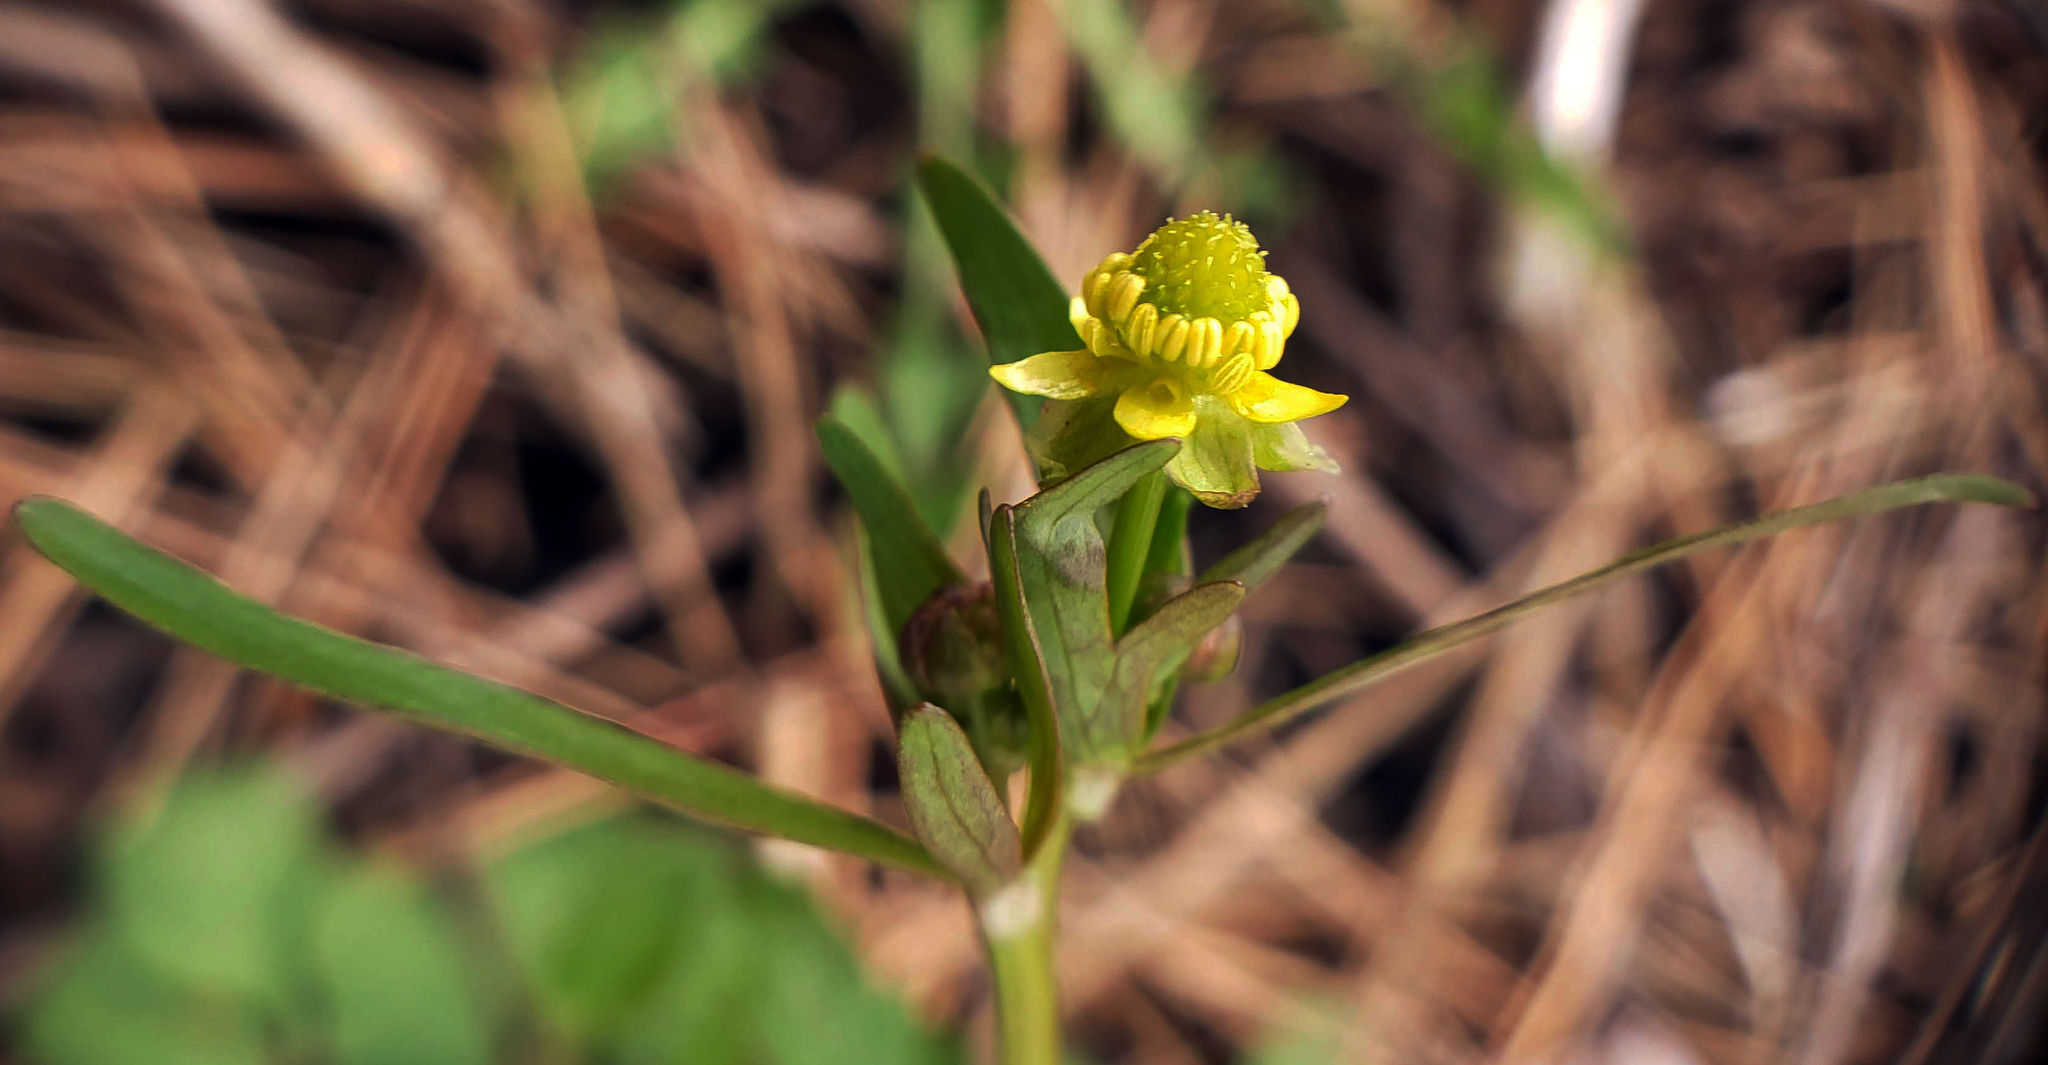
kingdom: Plantae
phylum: Tracheophyta
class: Magnoliopsida
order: Ranunculales
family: Ranunculaceae
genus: Ranunculus
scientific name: Ranunculus abortivus
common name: Early wood buttercup
